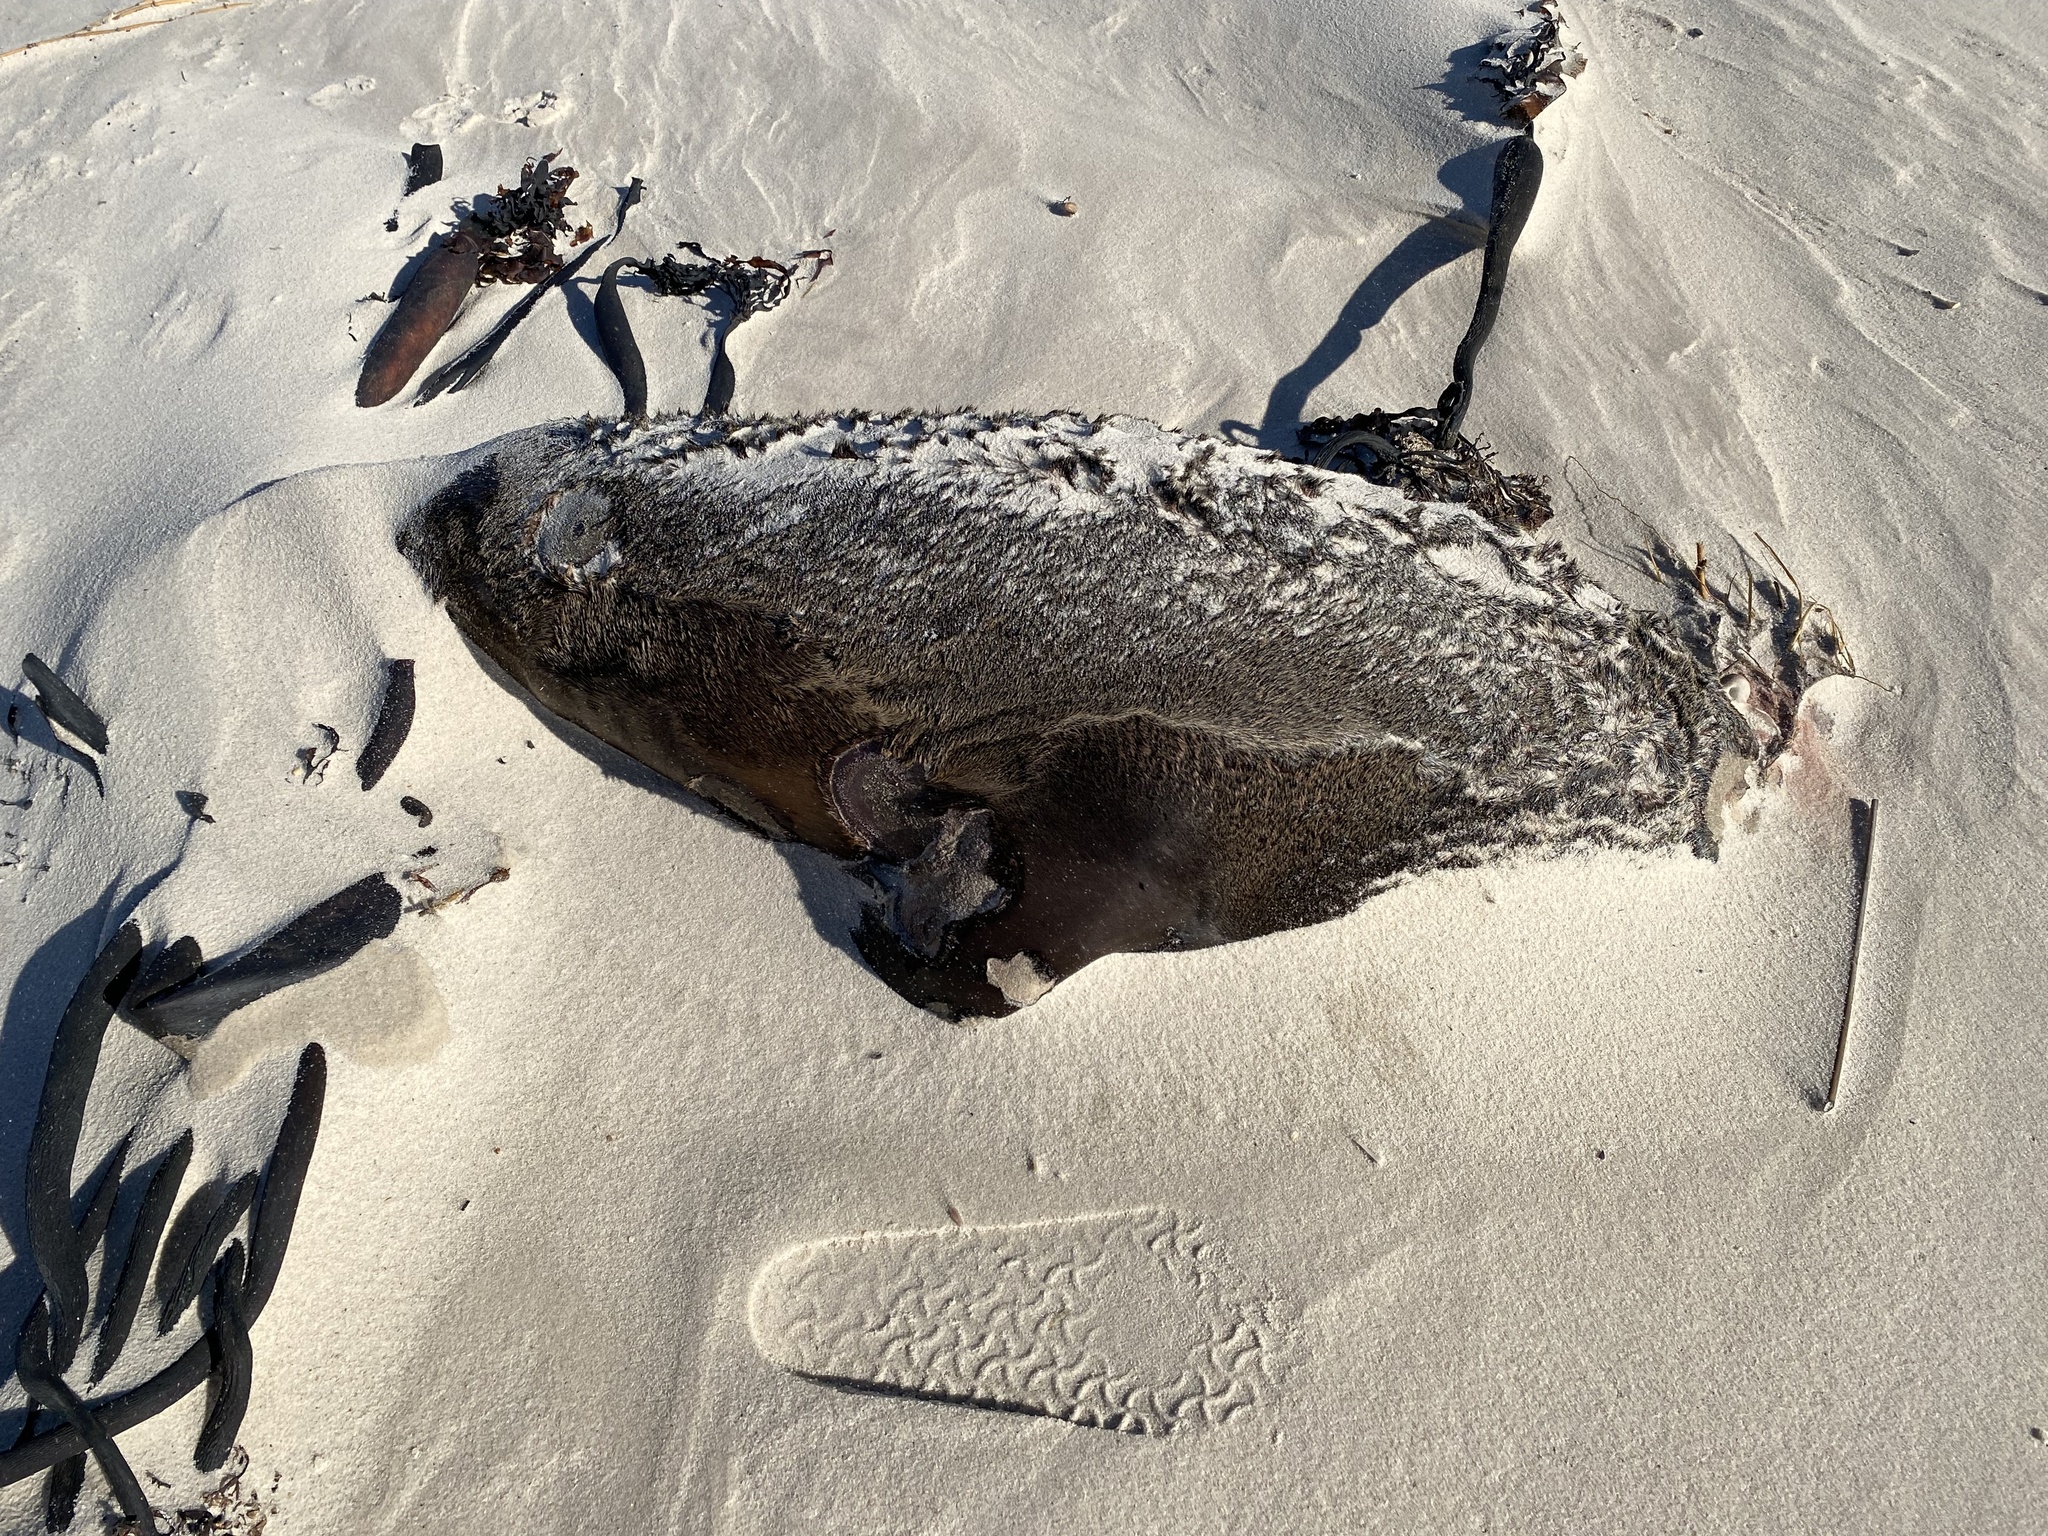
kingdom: Animalia
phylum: Chordata
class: Mammalia
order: Carnivora
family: Otariidae
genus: Arctocephalus
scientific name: Arctocephalus pusillus
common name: Brown fur seal
